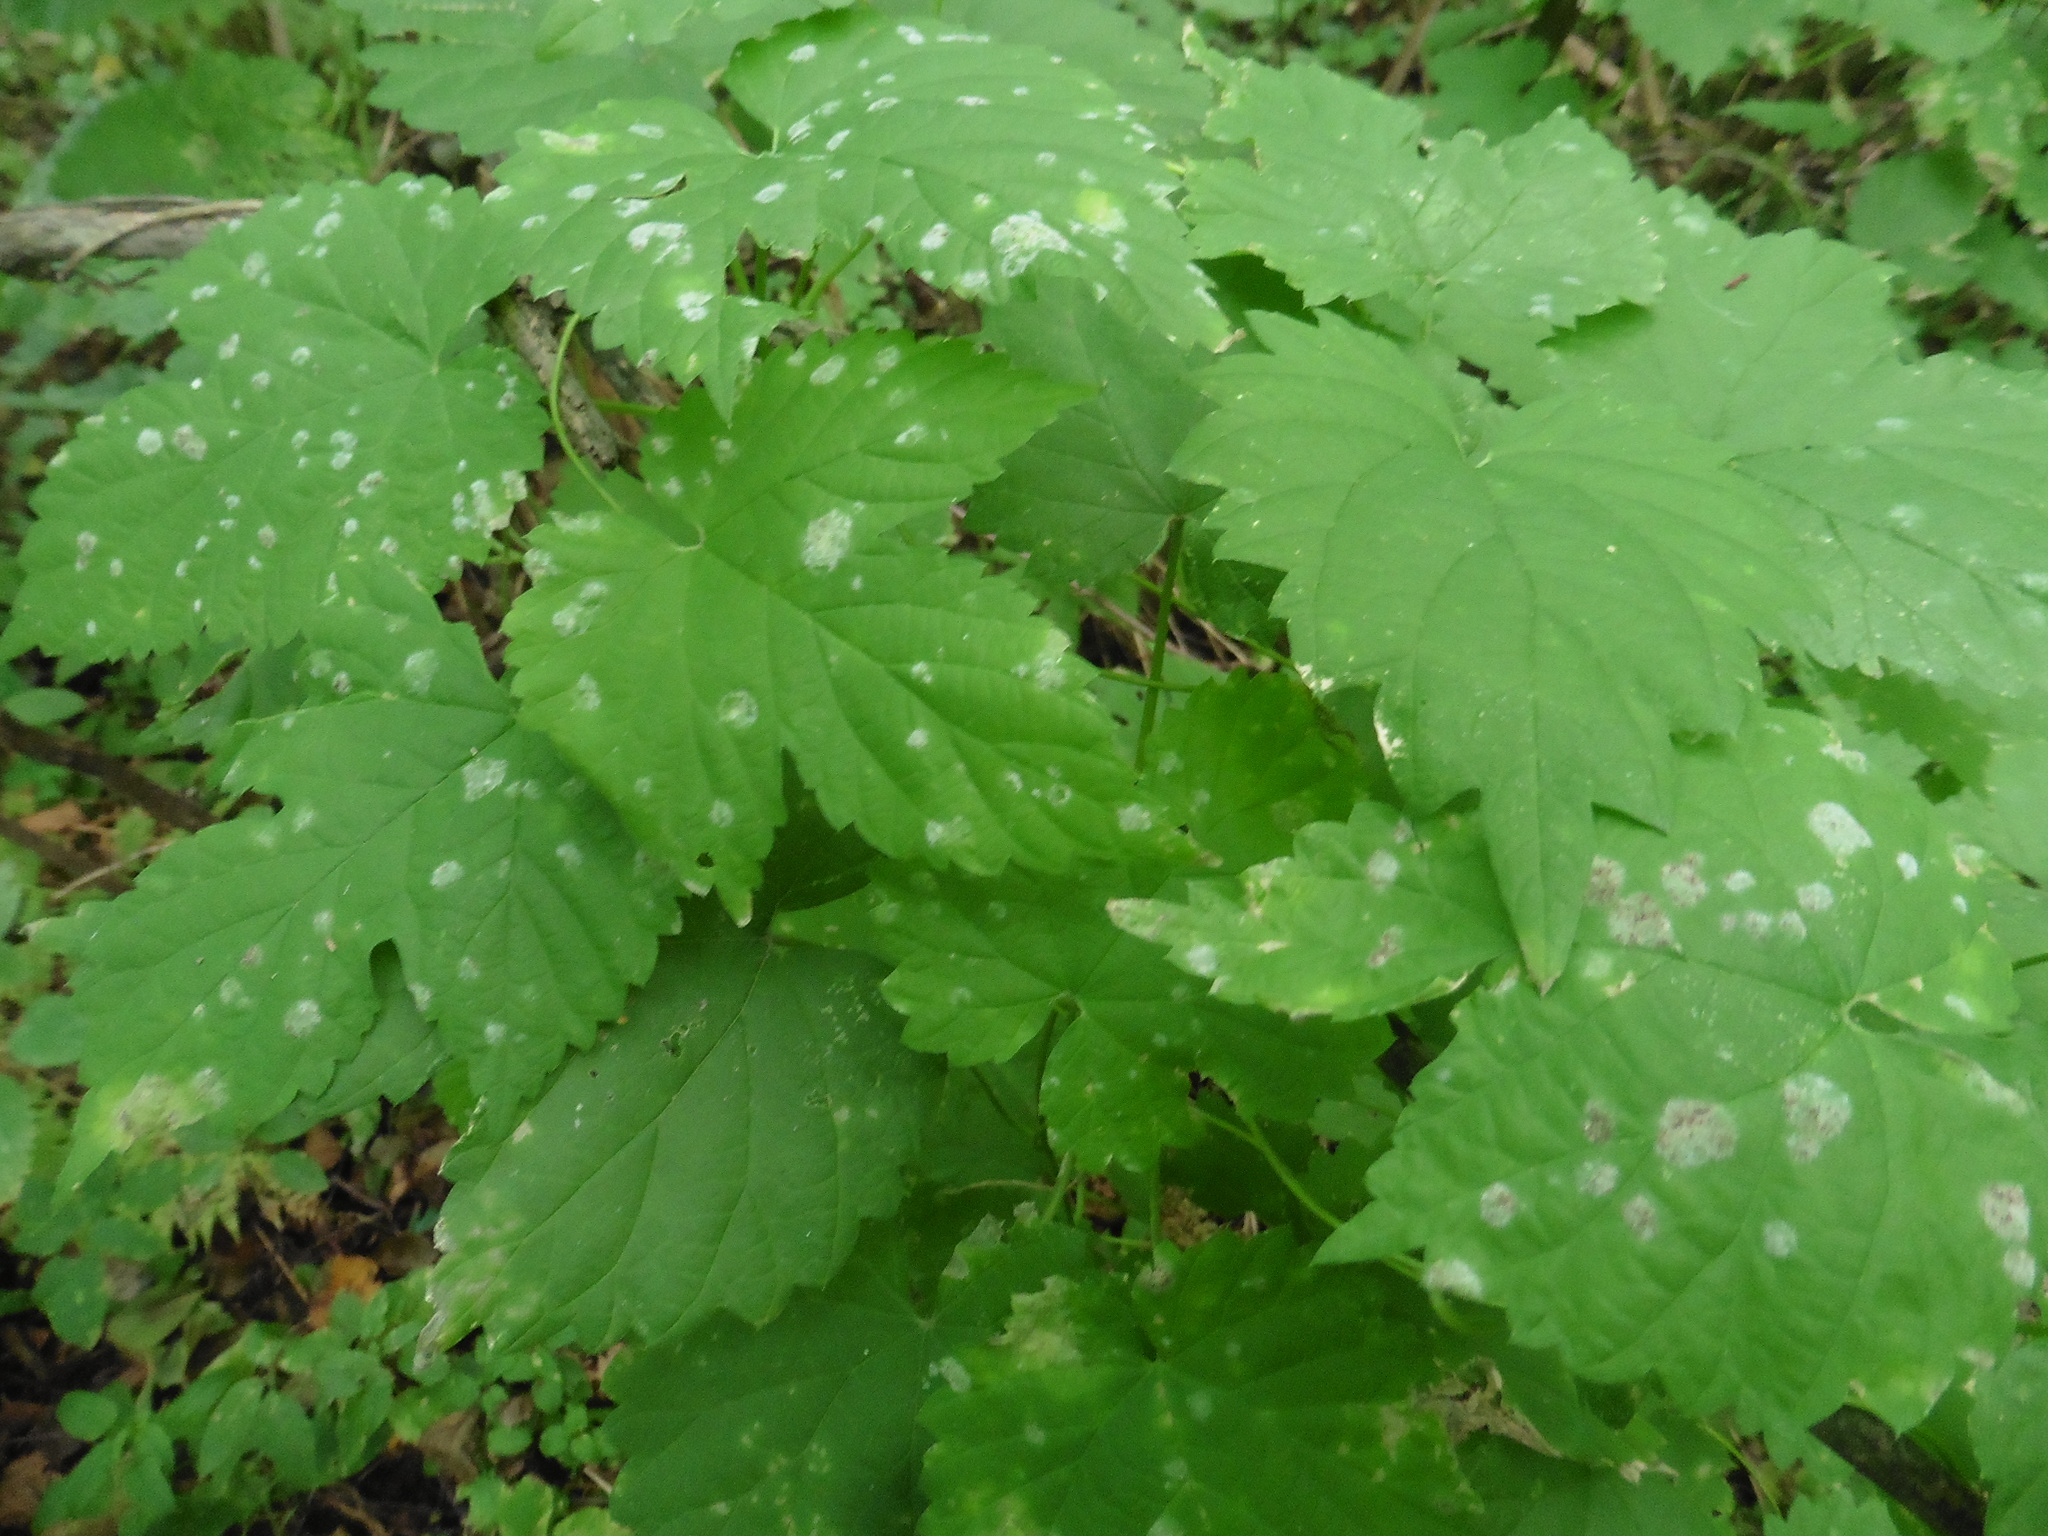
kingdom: Plantae
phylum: Tracheophyta
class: Magnoliopsida
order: Rosales
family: Cannabaceae
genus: Humulus
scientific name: Humulus lupulus
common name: Hop
